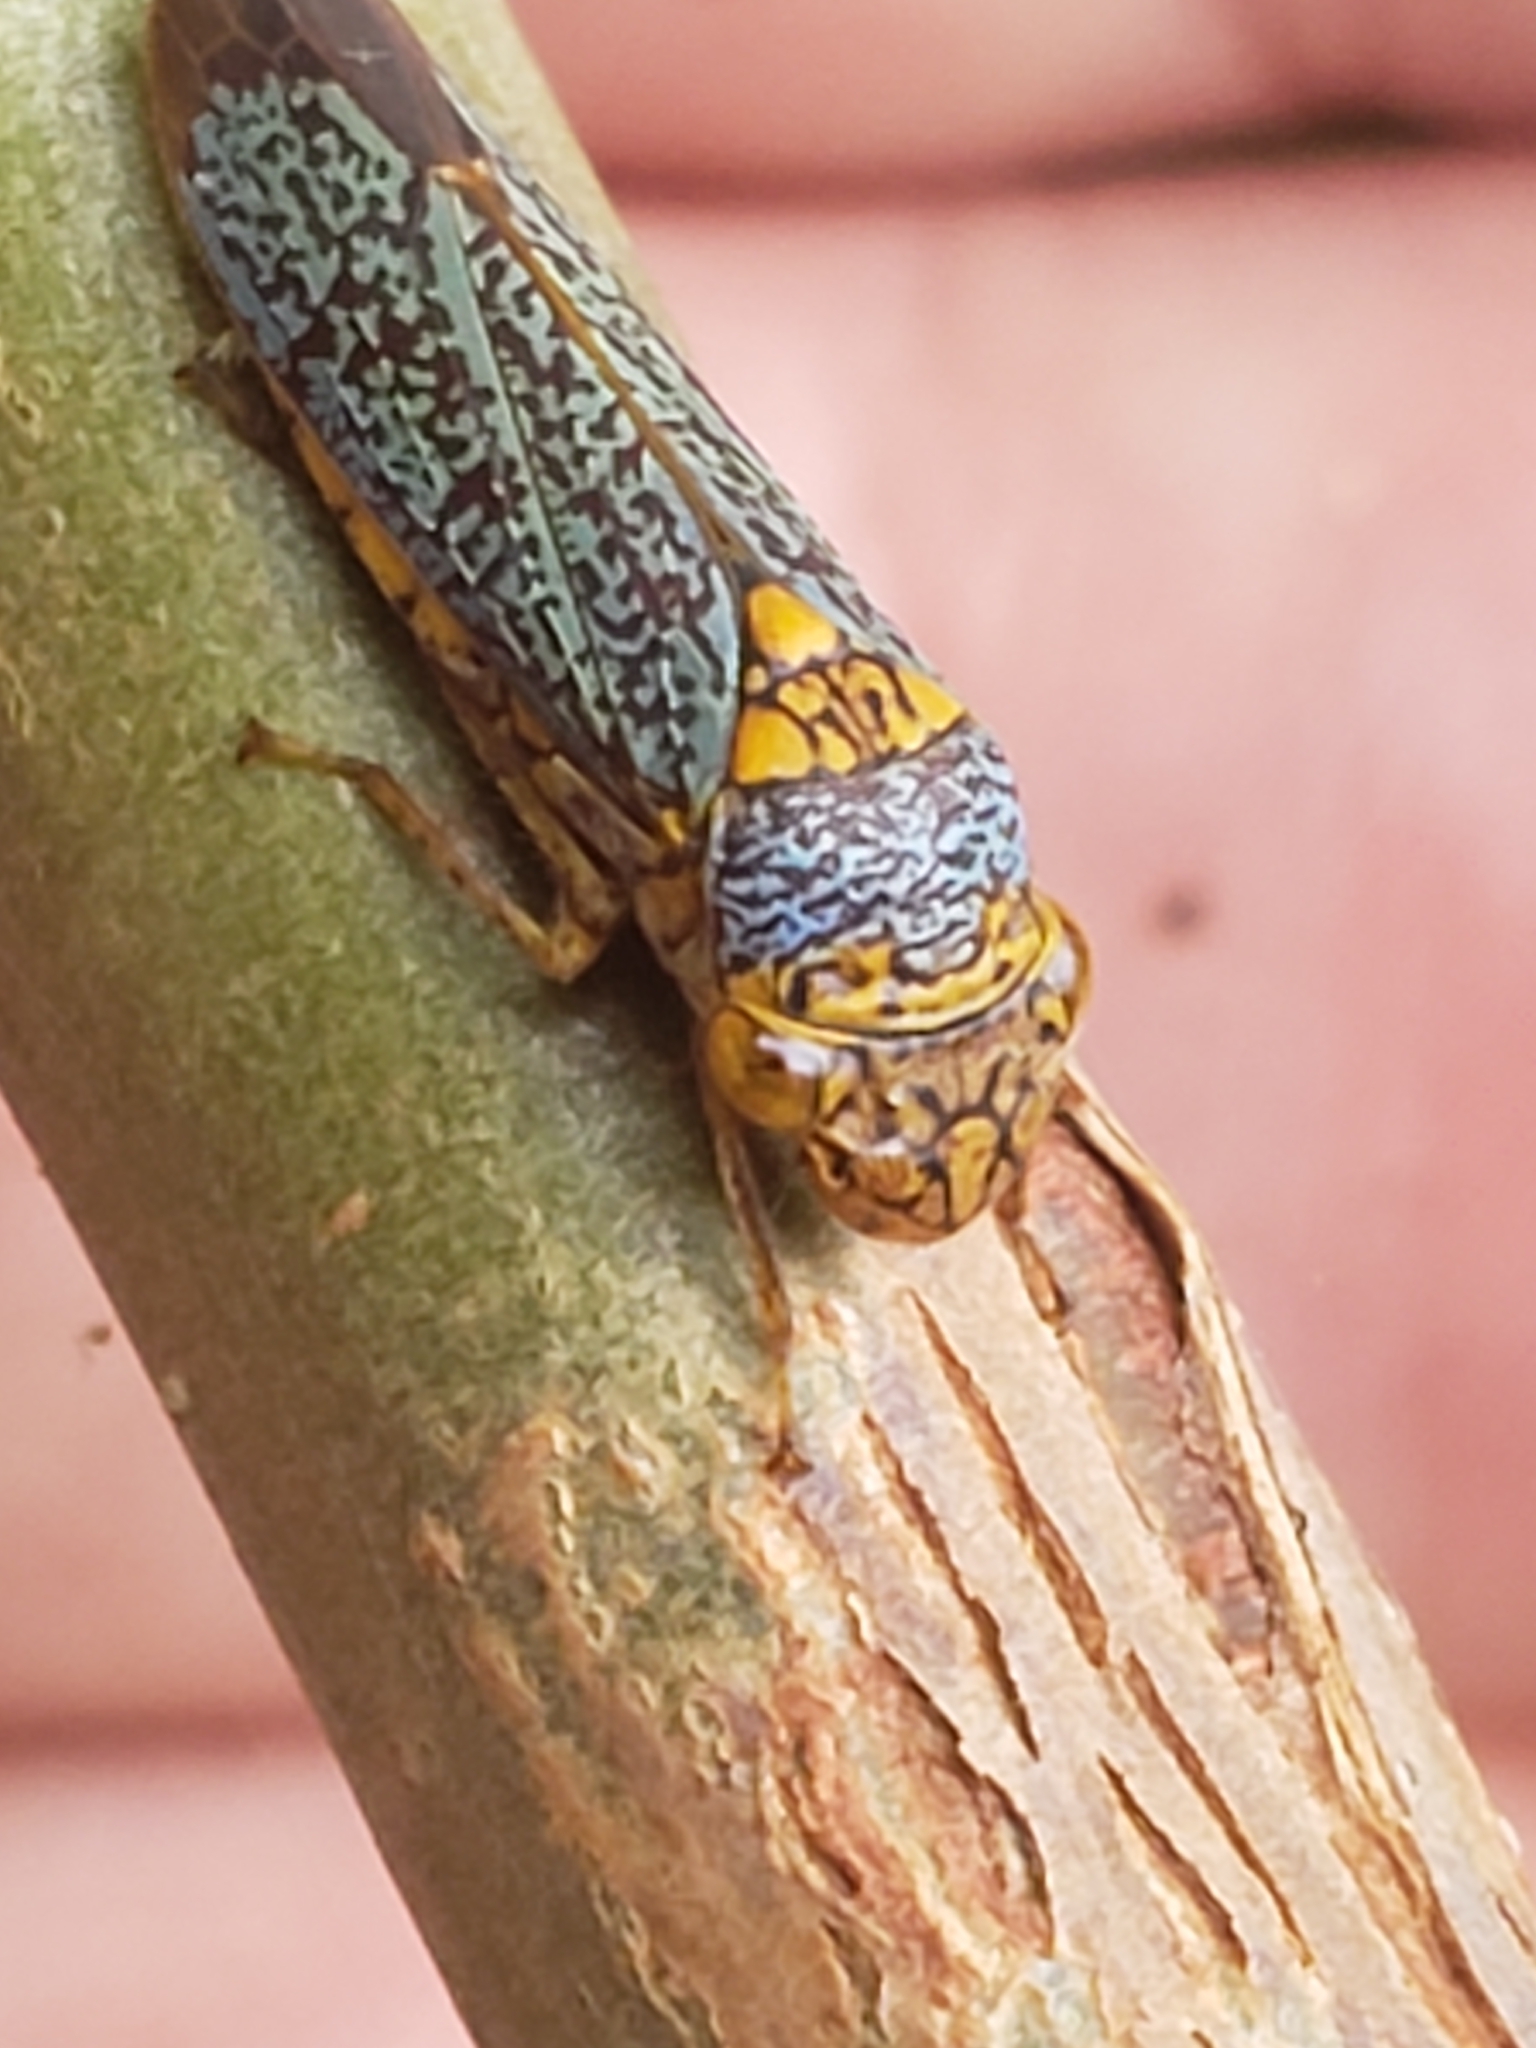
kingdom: Animalia
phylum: Arthropoda
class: Insecta
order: Hemiptera
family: Cicadellidae
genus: Oncometopia
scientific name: Oncometopia orbona
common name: Broad-headed sharpshooter
